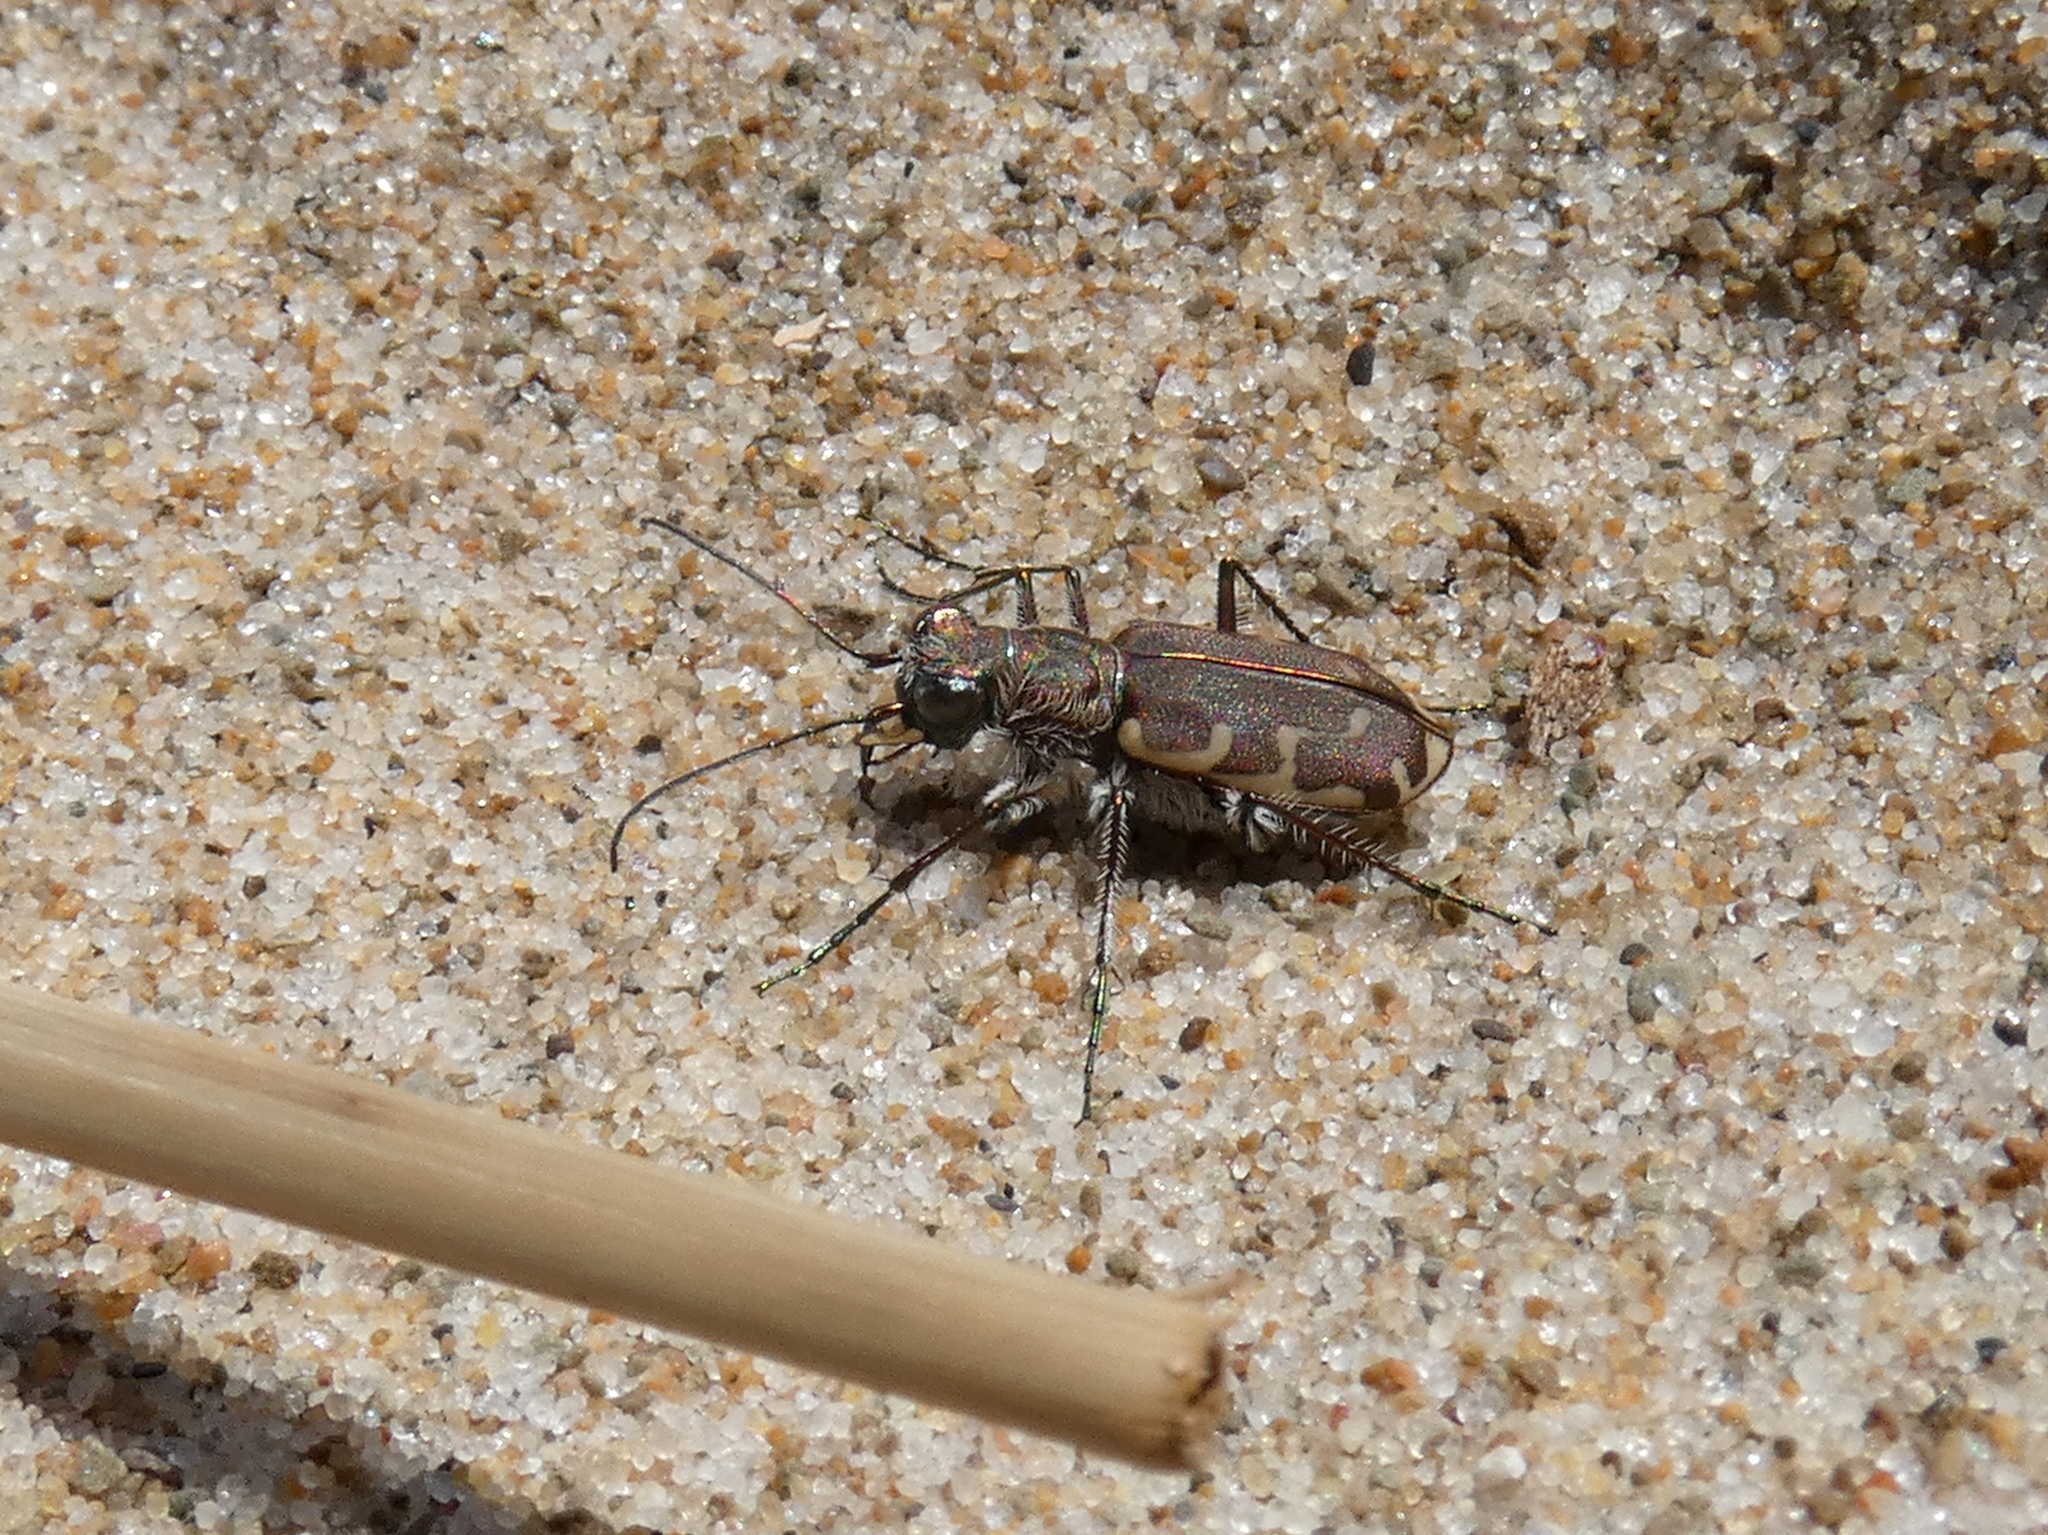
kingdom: Animalia
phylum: Arthropoda
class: Insecta
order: Coleoptera
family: Carabidae
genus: Cicindela
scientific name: Cicindela repanda
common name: Bronzed tiger beetle
